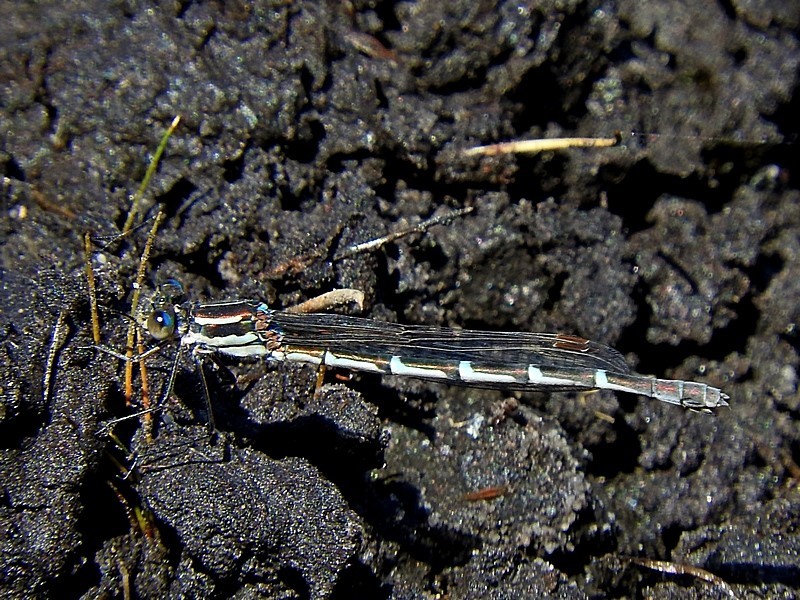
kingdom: Animalia
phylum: Arthropoda
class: Insecta
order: Odonata
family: Lestidae
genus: Austrolestes
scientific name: Austrolestes annulosus
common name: Blue ringtail
